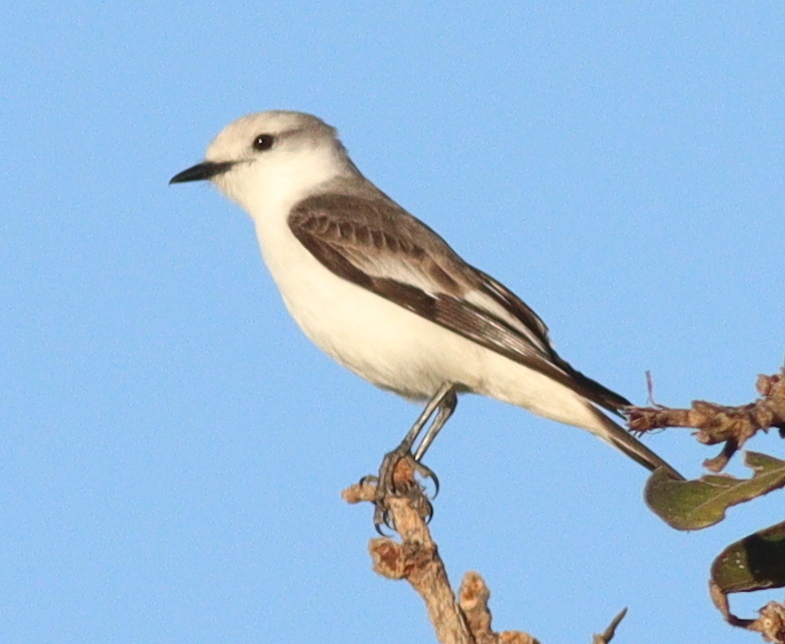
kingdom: Animalia
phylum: Chordata
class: Aves
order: Passeriformes
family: Tyrannidae
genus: Xolmis
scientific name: Xolmis velatus
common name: White-rumped monjita
